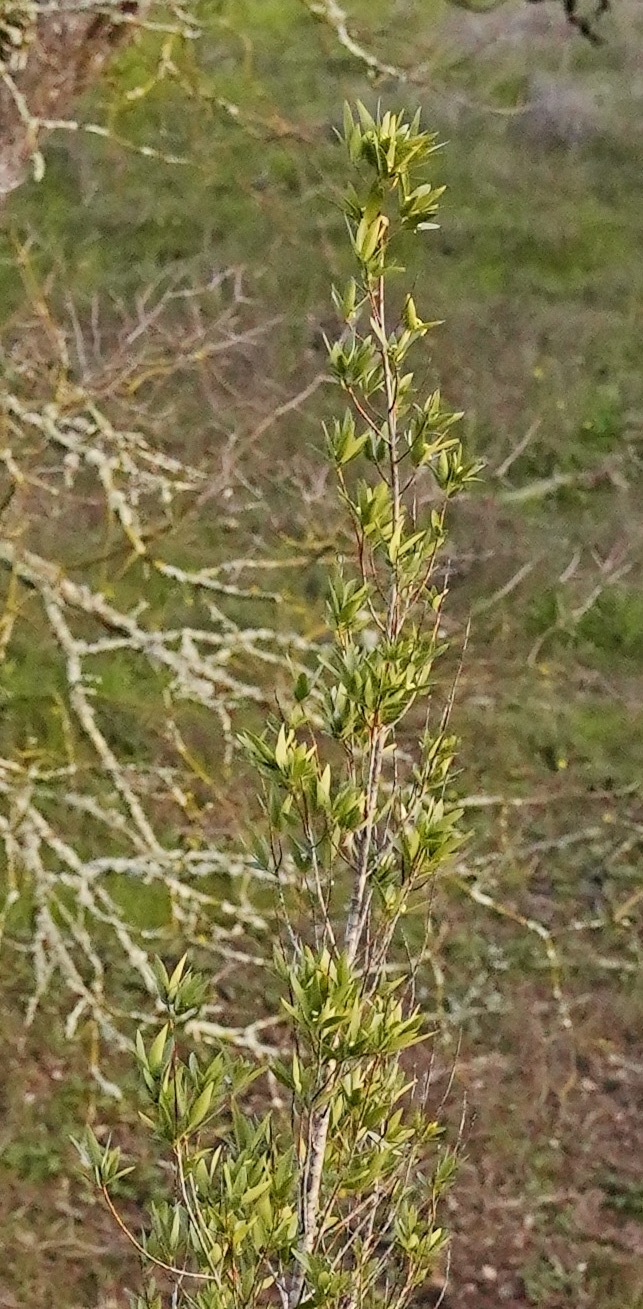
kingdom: Plantae
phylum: Tracheophyta
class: Magnoliopsida
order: Laurales
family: Lauraceae
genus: Umbellularia
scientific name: Umbellularia californica
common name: California bay
